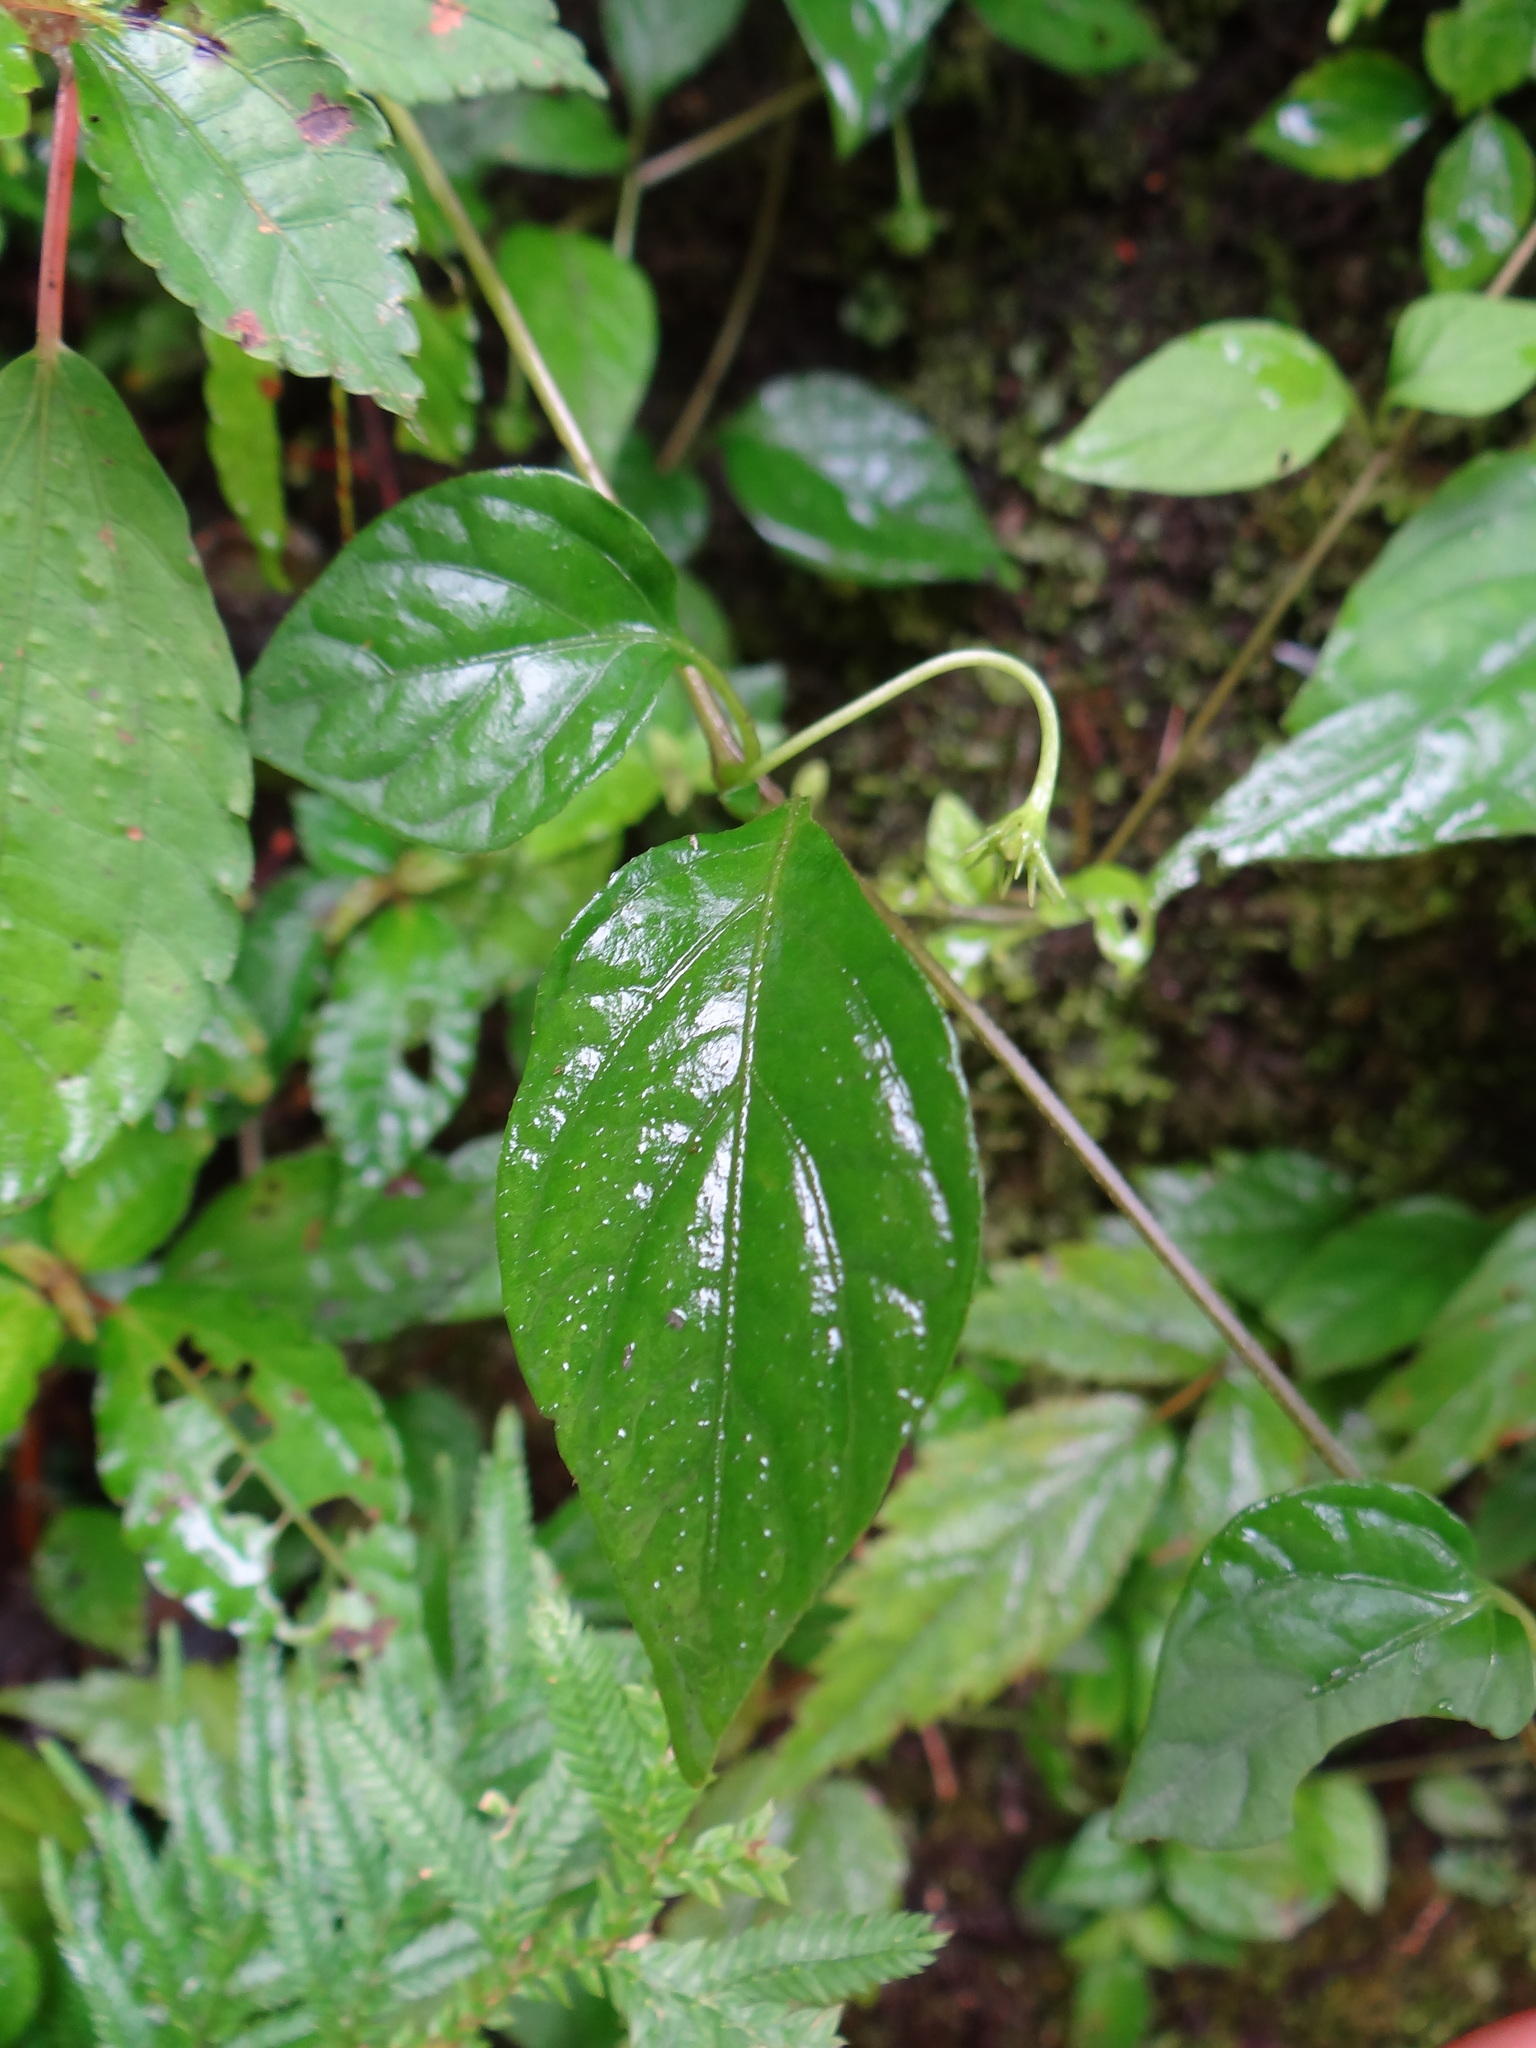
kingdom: Plantae
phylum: Tracheophyta
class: Magnoliopsida
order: Solanales
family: Solanaceae
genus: Lycianthes
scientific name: Lycianthes lysimachioides
